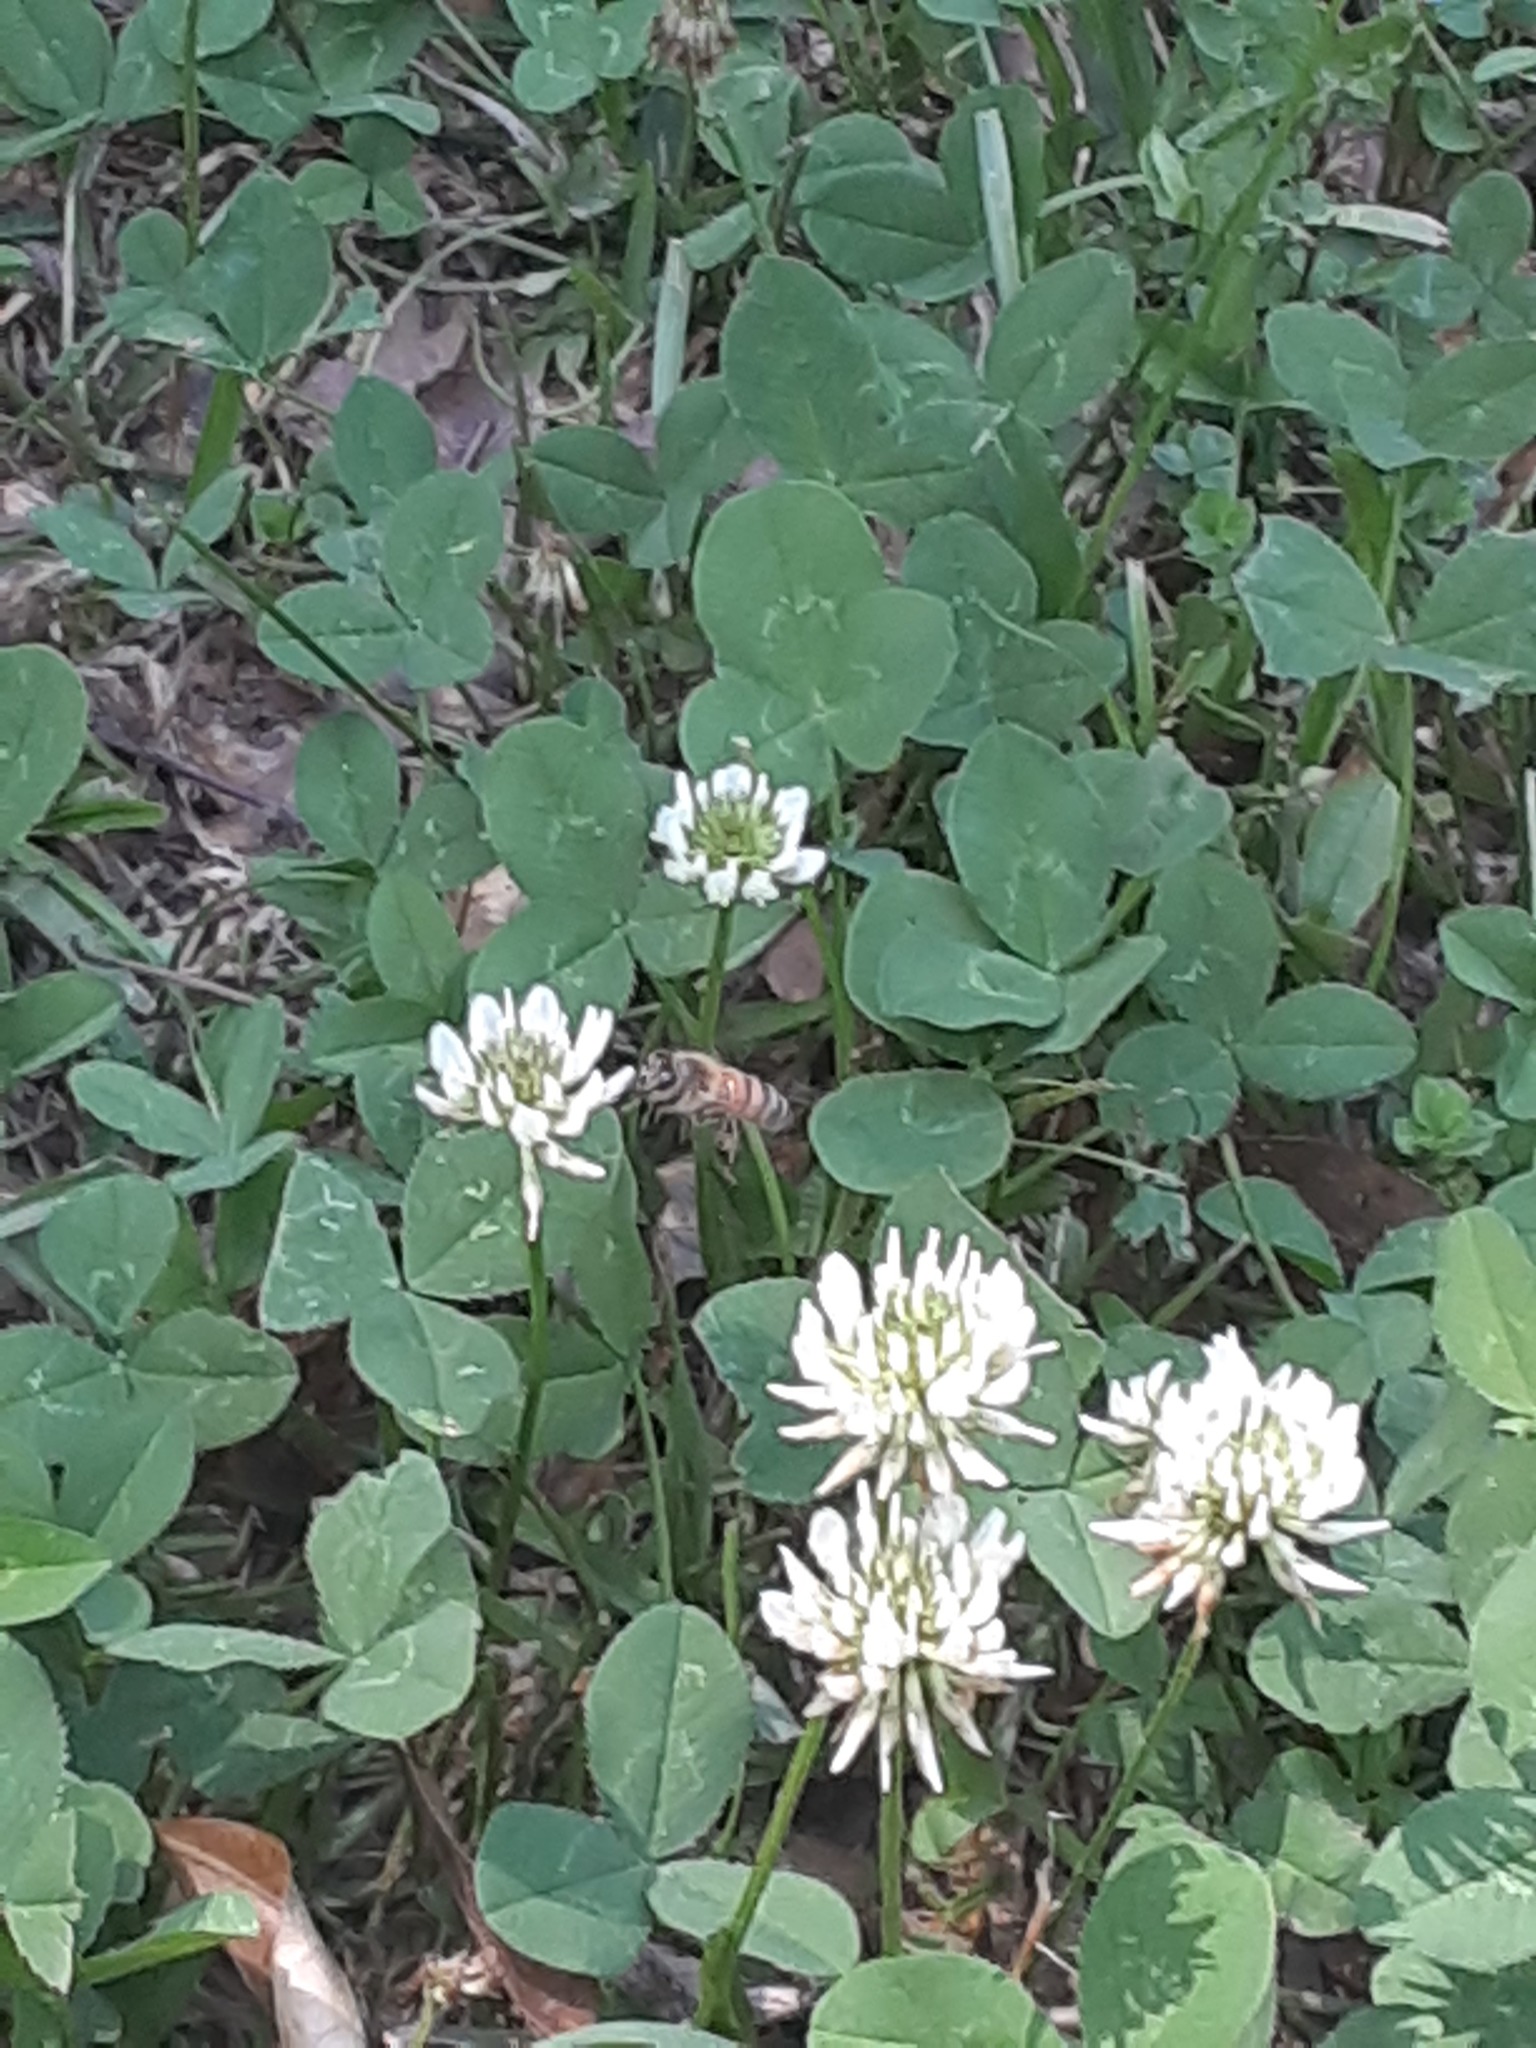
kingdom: Animalia
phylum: Arthropoda
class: Insecta
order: Hymenoptera
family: Apidae
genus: Apis
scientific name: Apis mellifera
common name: Honey bee
